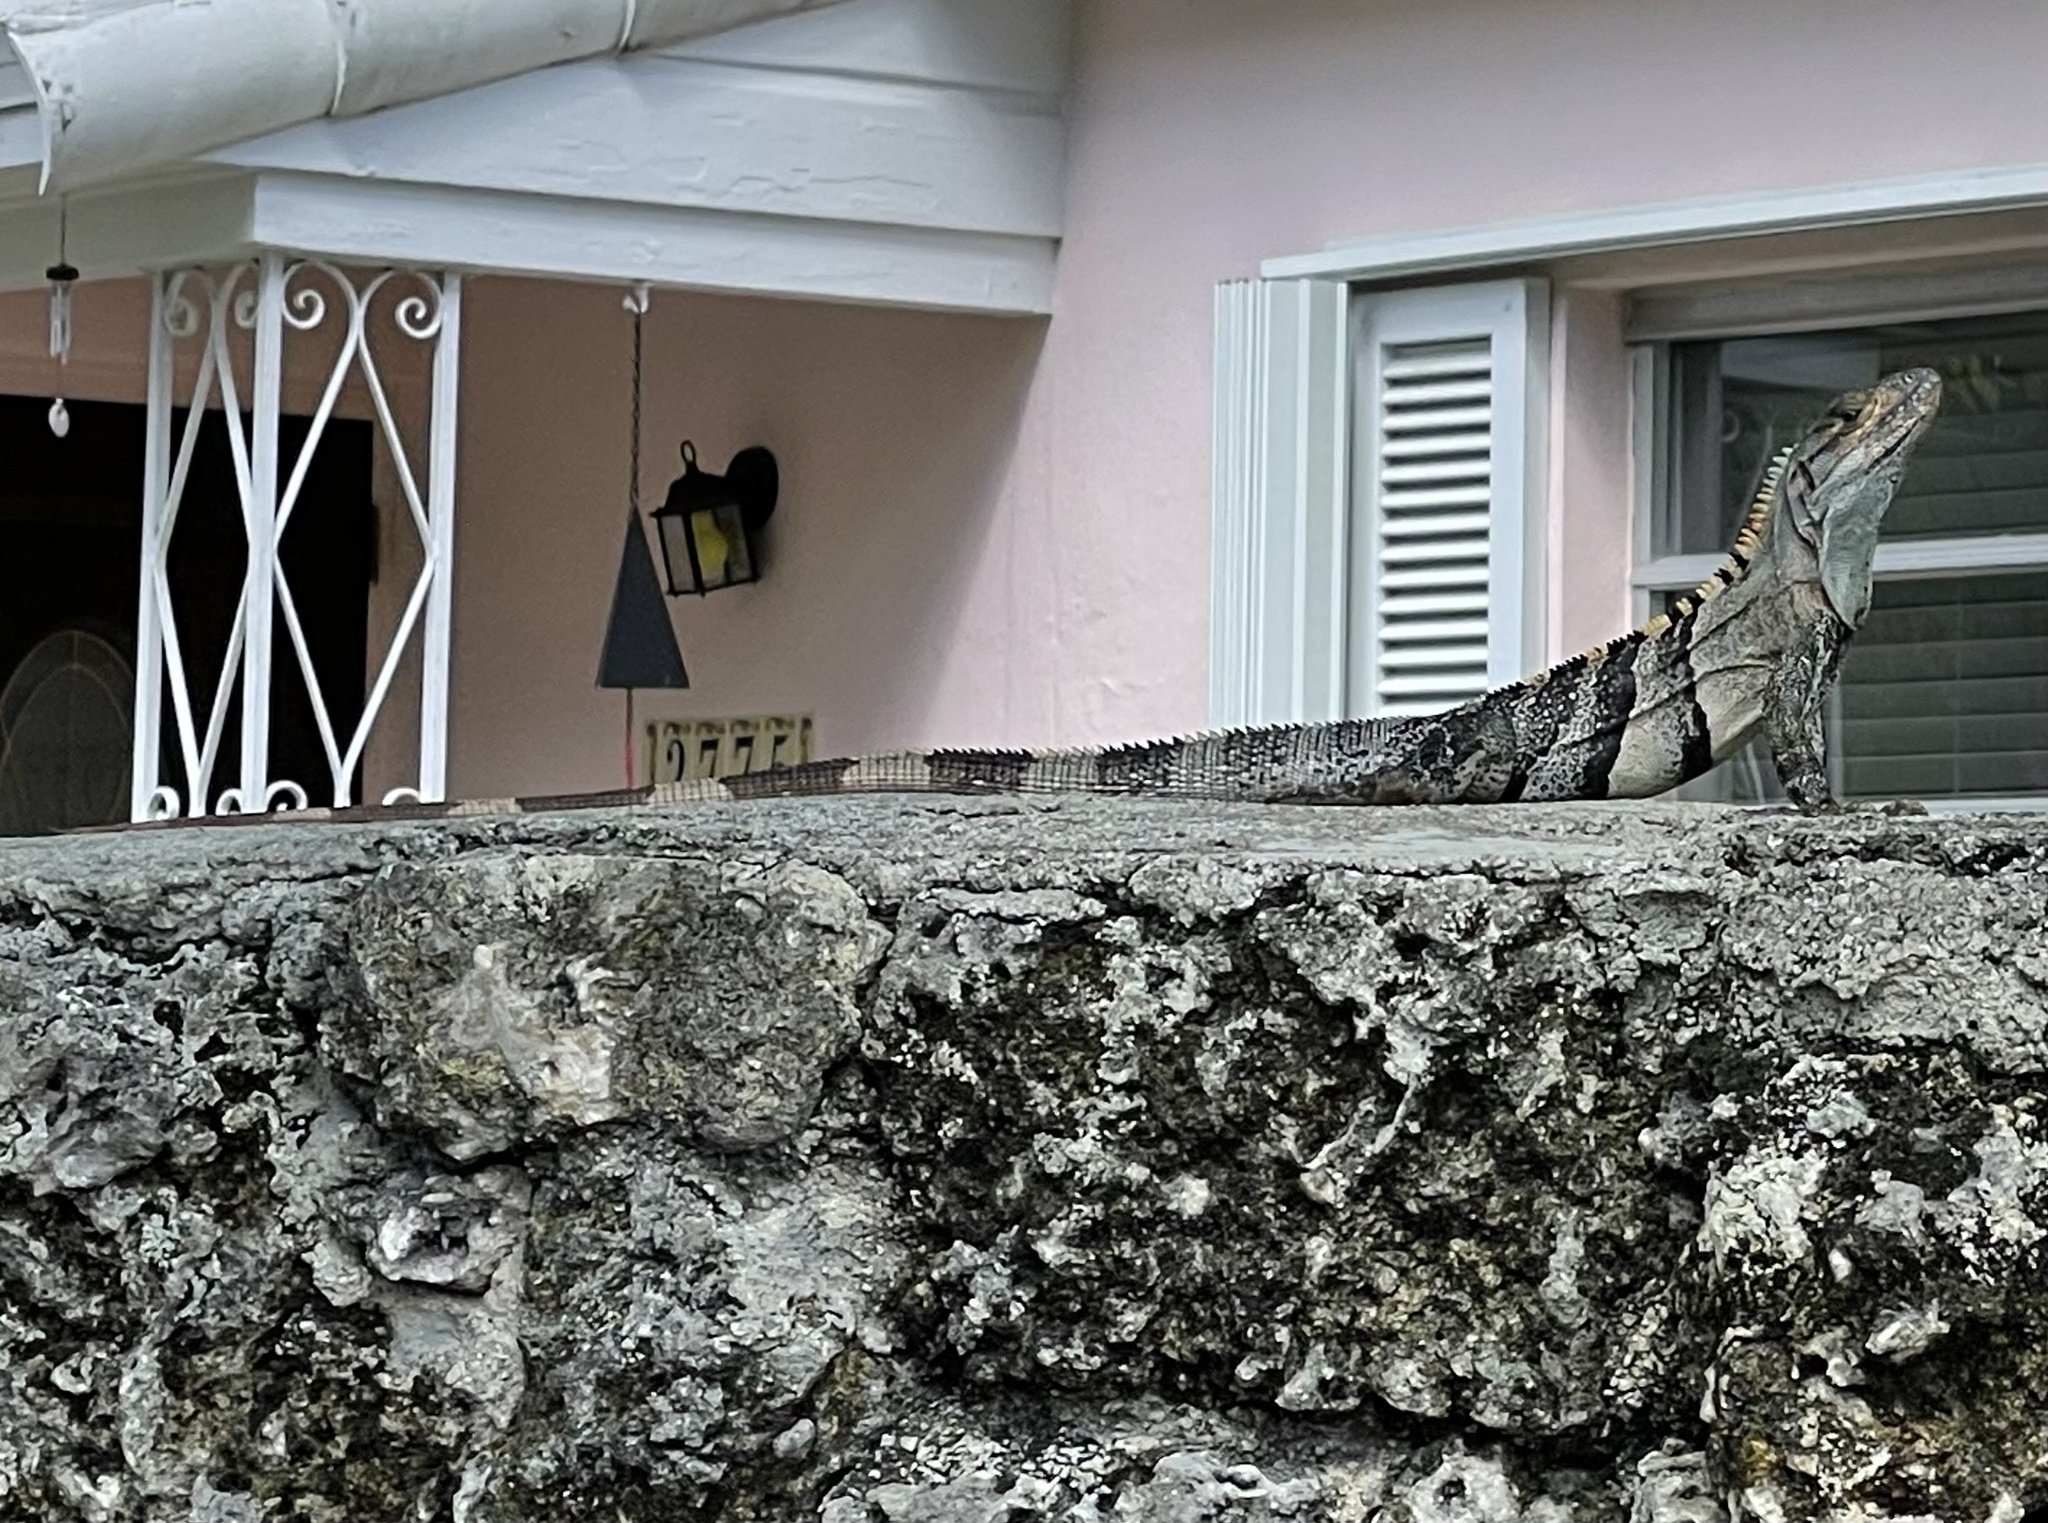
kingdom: Animalia
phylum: Chordata
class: Squamata
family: Iguanidae
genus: Ctenosaura
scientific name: Ctenosaura similis
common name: Black spiny-tailed iguana
